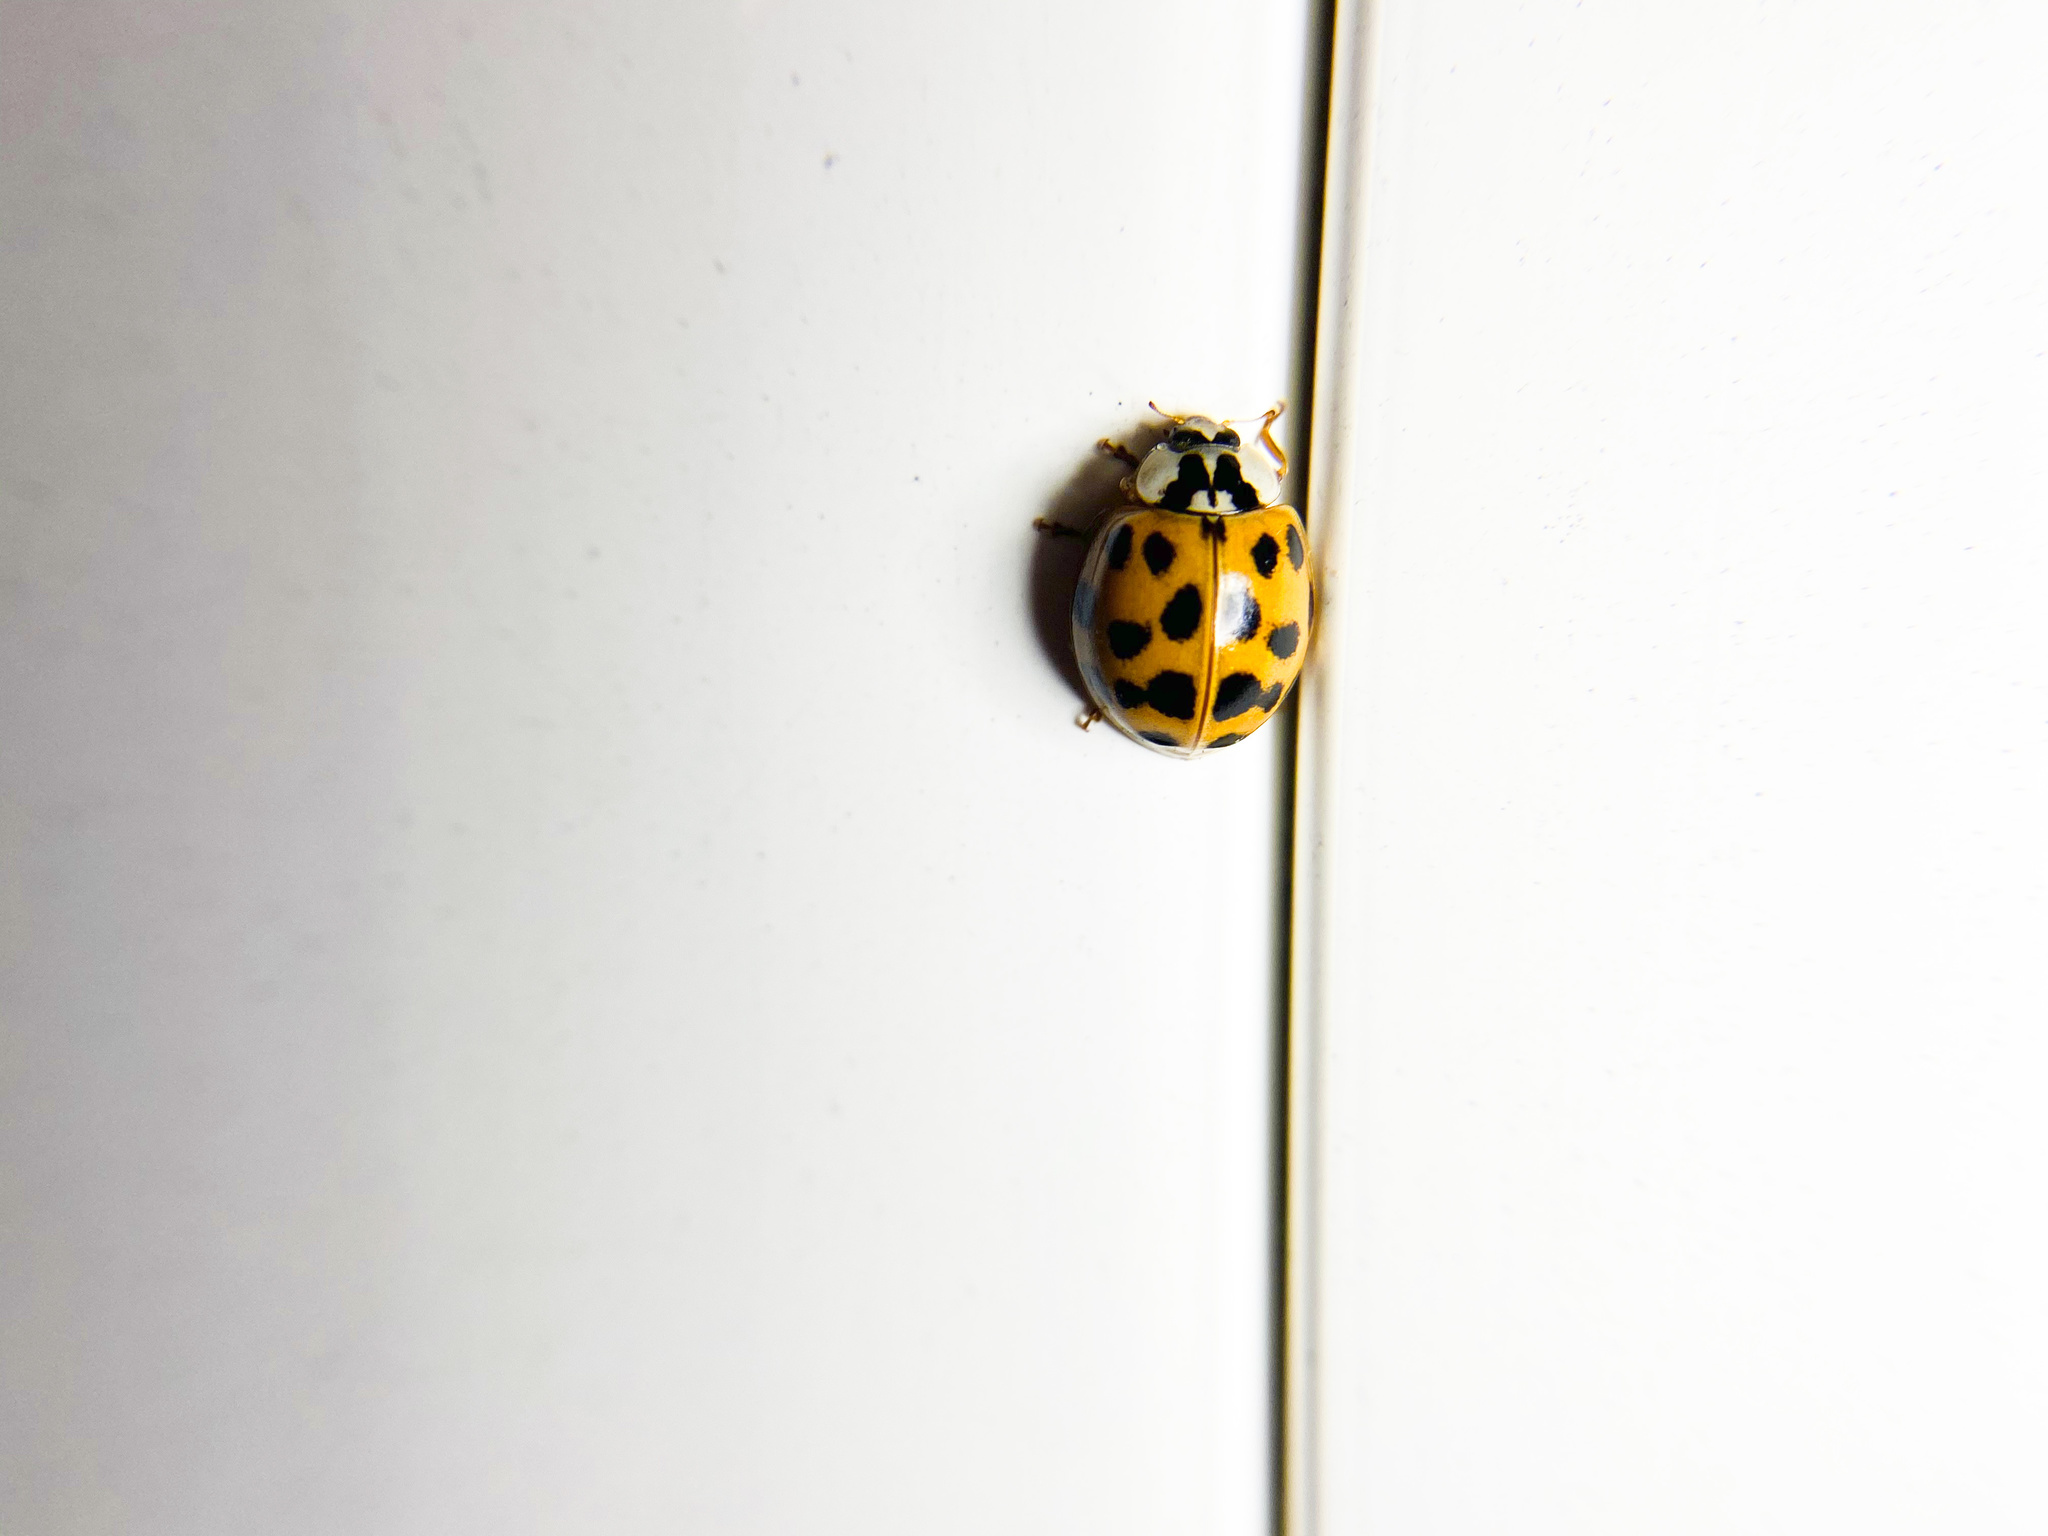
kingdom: Animalia
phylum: Arthropoda
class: Insecta
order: Coleoptera
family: Coccinellidae
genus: Harmonia
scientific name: Harmonia axyridis
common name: Harlequin ladybird
